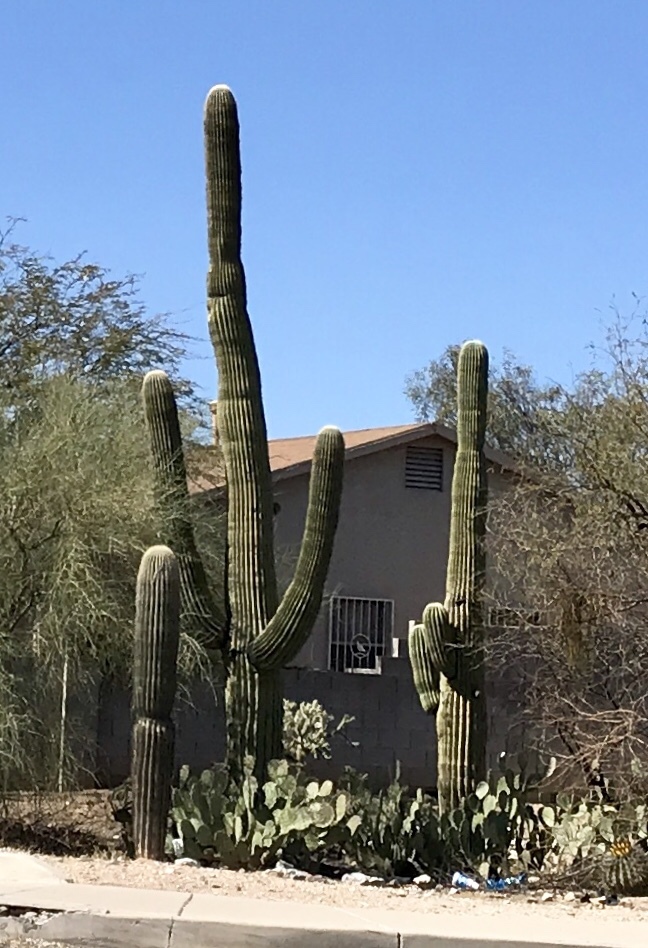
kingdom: Plantae
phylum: Tracheophyta
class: Magnoliopsida
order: Caryophyllales
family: Cactaceae
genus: Carnegiea
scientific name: Carnegiea gigantea
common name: Saguaro
